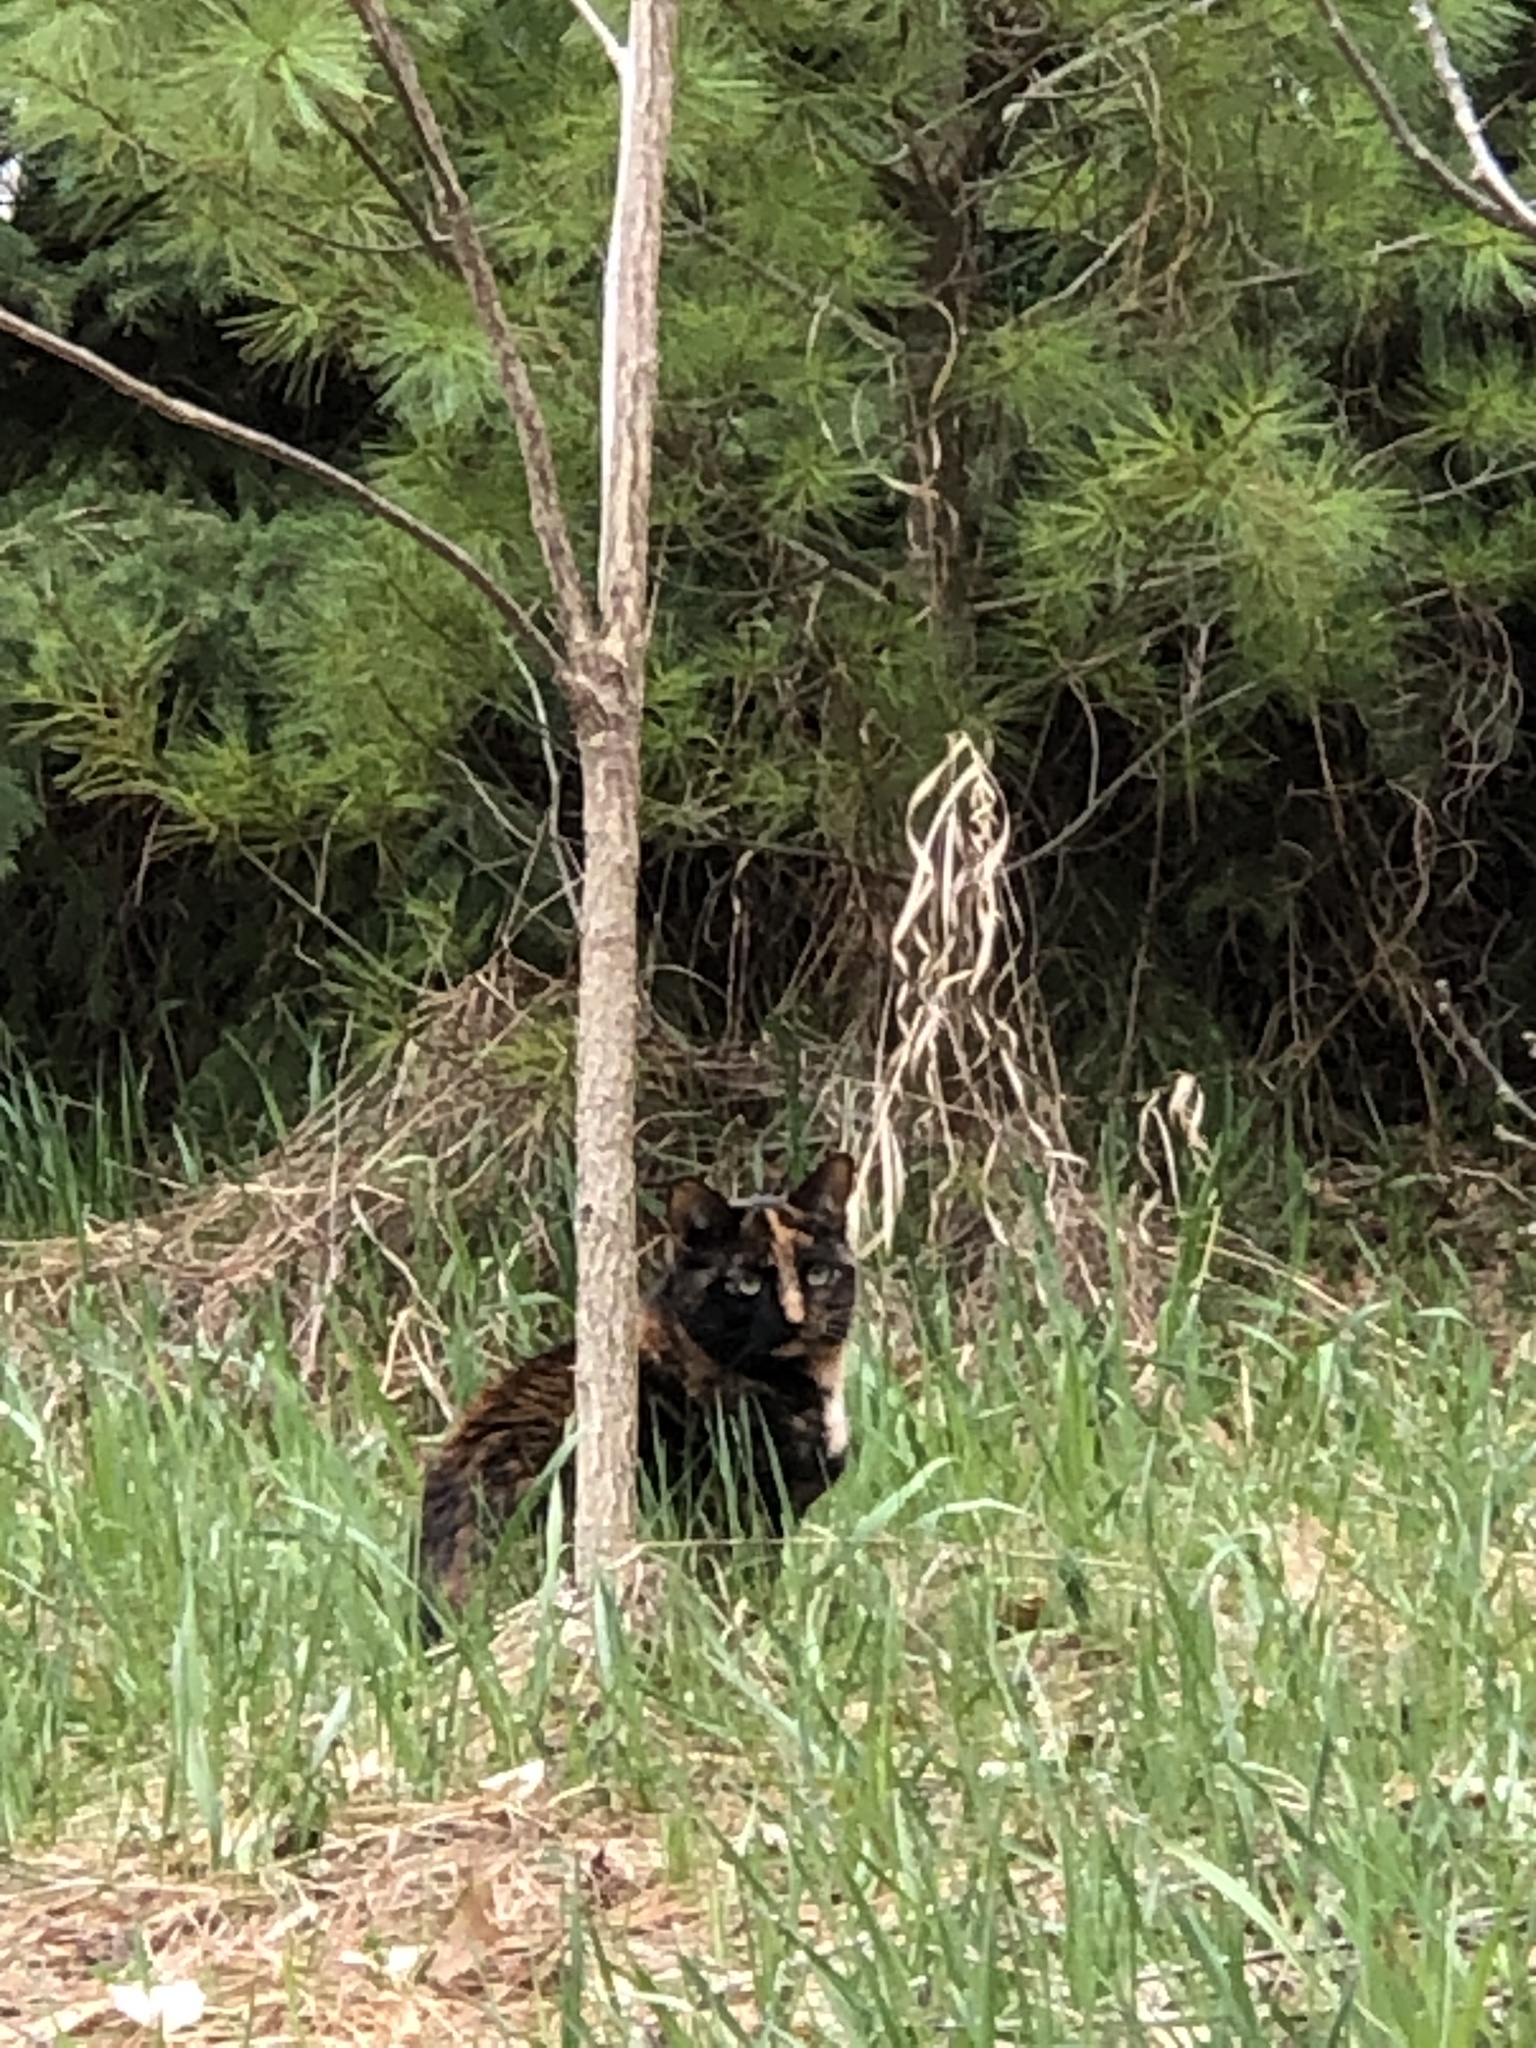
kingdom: Animalia
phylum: Chordata
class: Mammalia
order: Carnivora
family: Felidae
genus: Felis
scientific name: Felis catus
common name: Domestic cat
